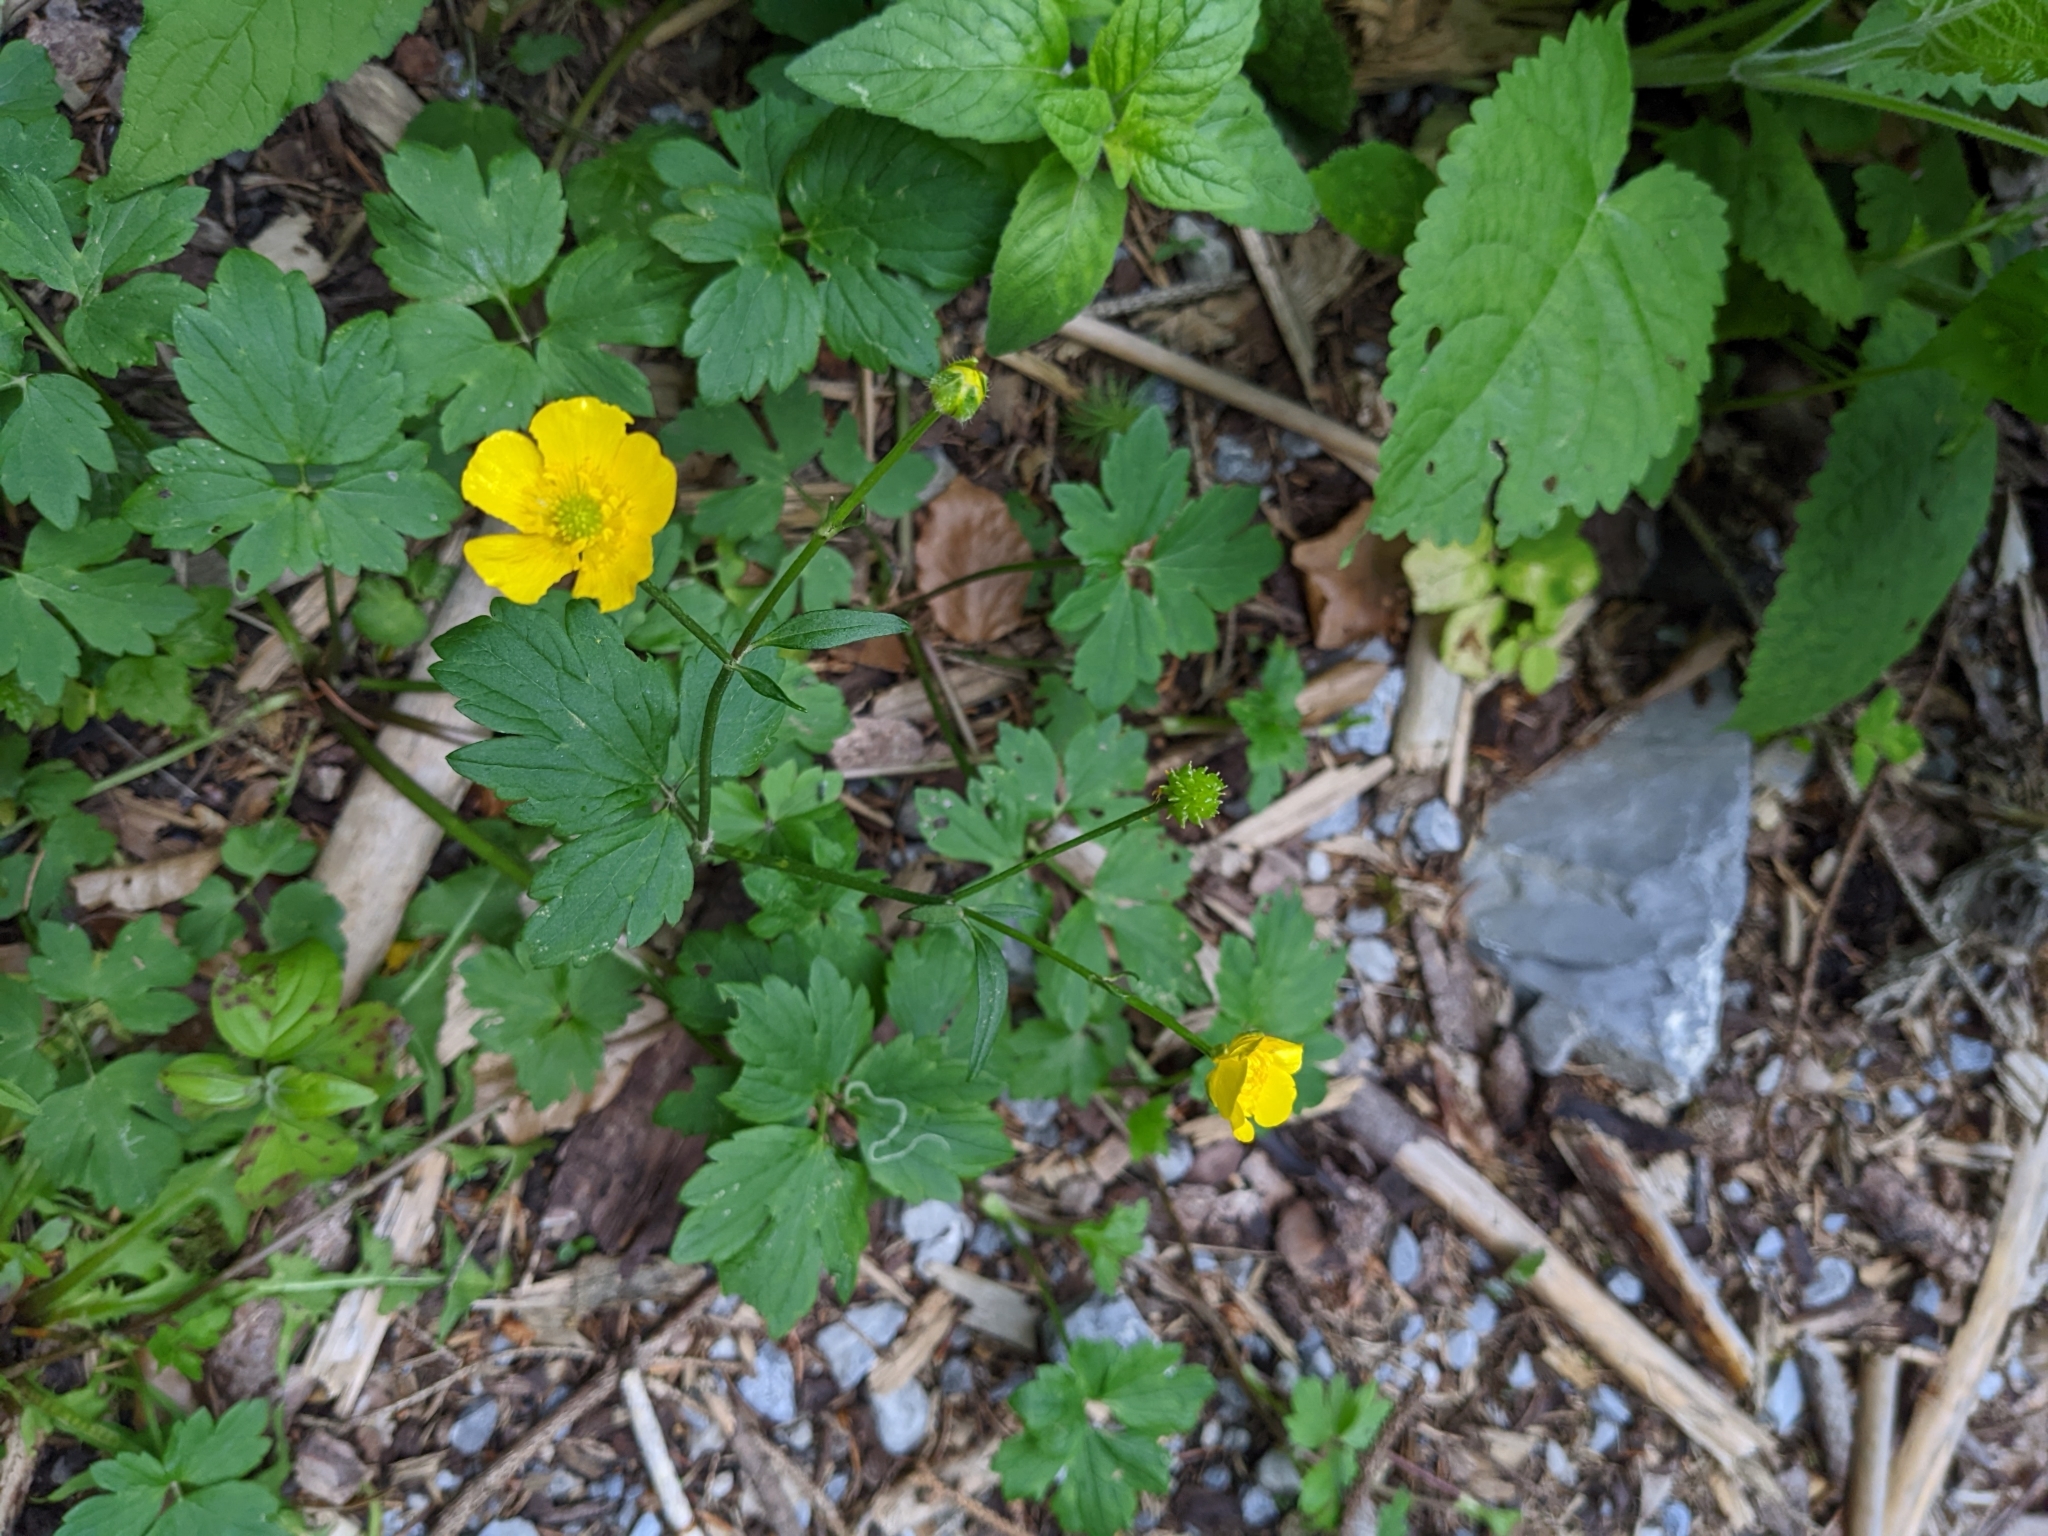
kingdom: Plantae
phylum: Tracheophyta
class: Magnoliopsida
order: Ranunculales
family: Ranunculaceae
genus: Ranunculus
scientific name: Ranunculus repens
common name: Creeping buttercup
